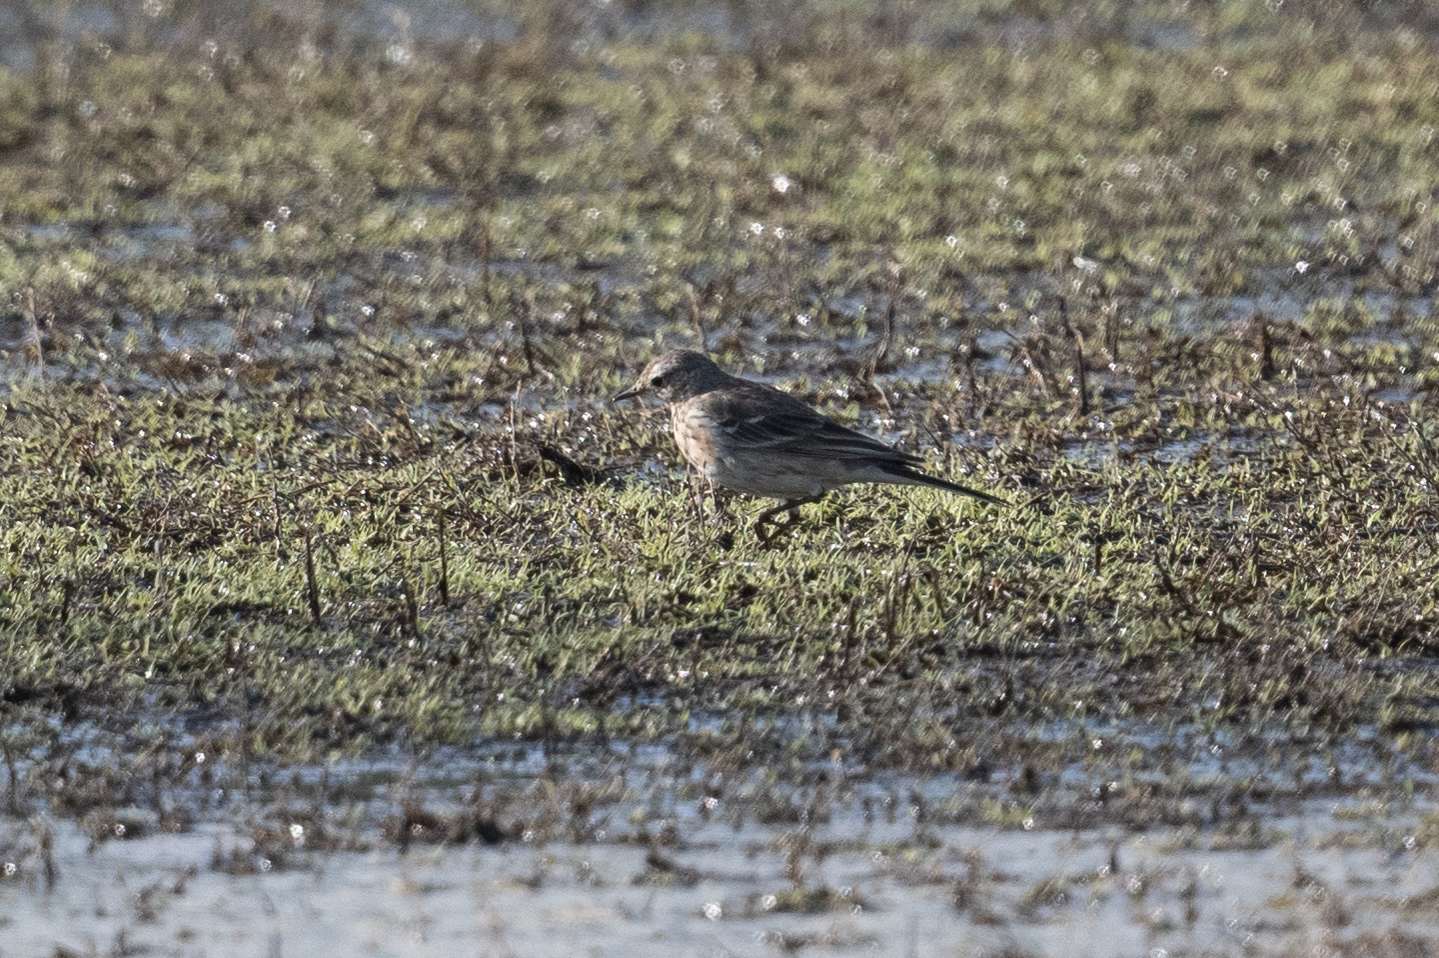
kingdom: Animalia
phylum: Chordata
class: Aves
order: Passeriformes
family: Motacillidae
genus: Anthus
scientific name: Anthus rubescens
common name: Buff-bellied pipit
